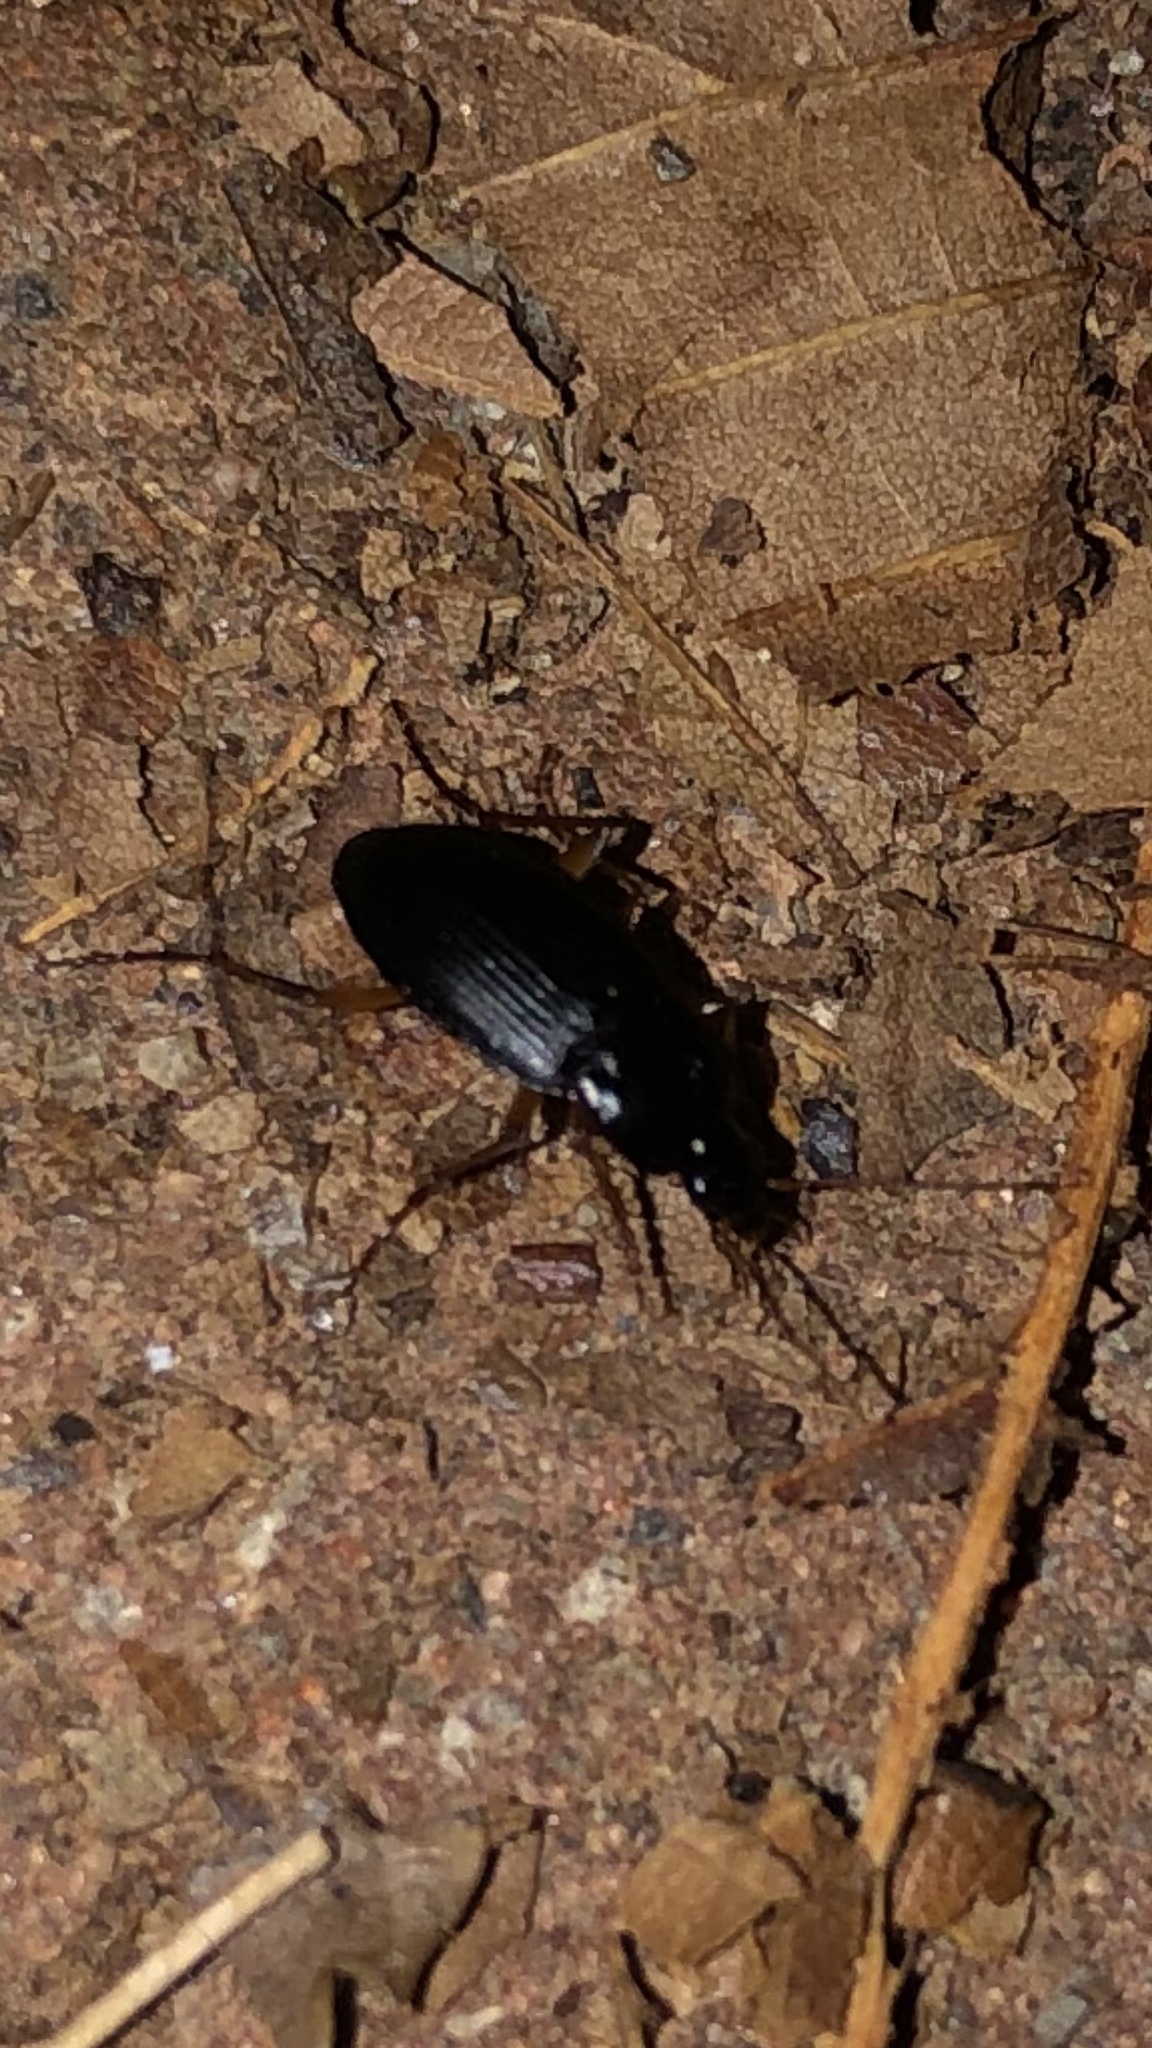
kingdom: Animalia
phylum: Arthropoda
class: Insecta
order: Coleoptera
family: Carabidae
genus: Calathus
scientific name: Calathus opaculus
